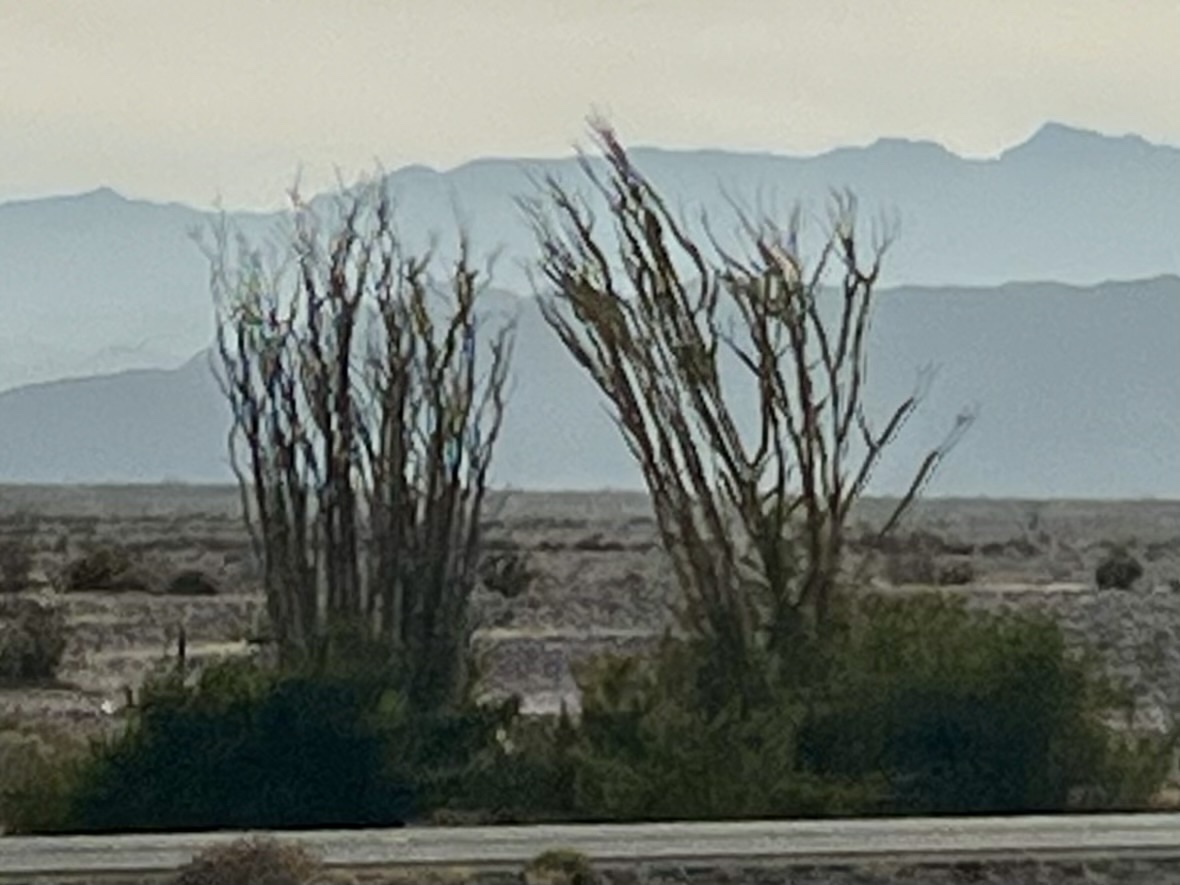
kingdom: Plantae
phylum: Tracheophyta
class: Magnoliopsida
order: Ericales
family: Fouquieriaceae
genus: Fouquieria
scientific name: Fouquieria splendens
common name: Vine-cactus
